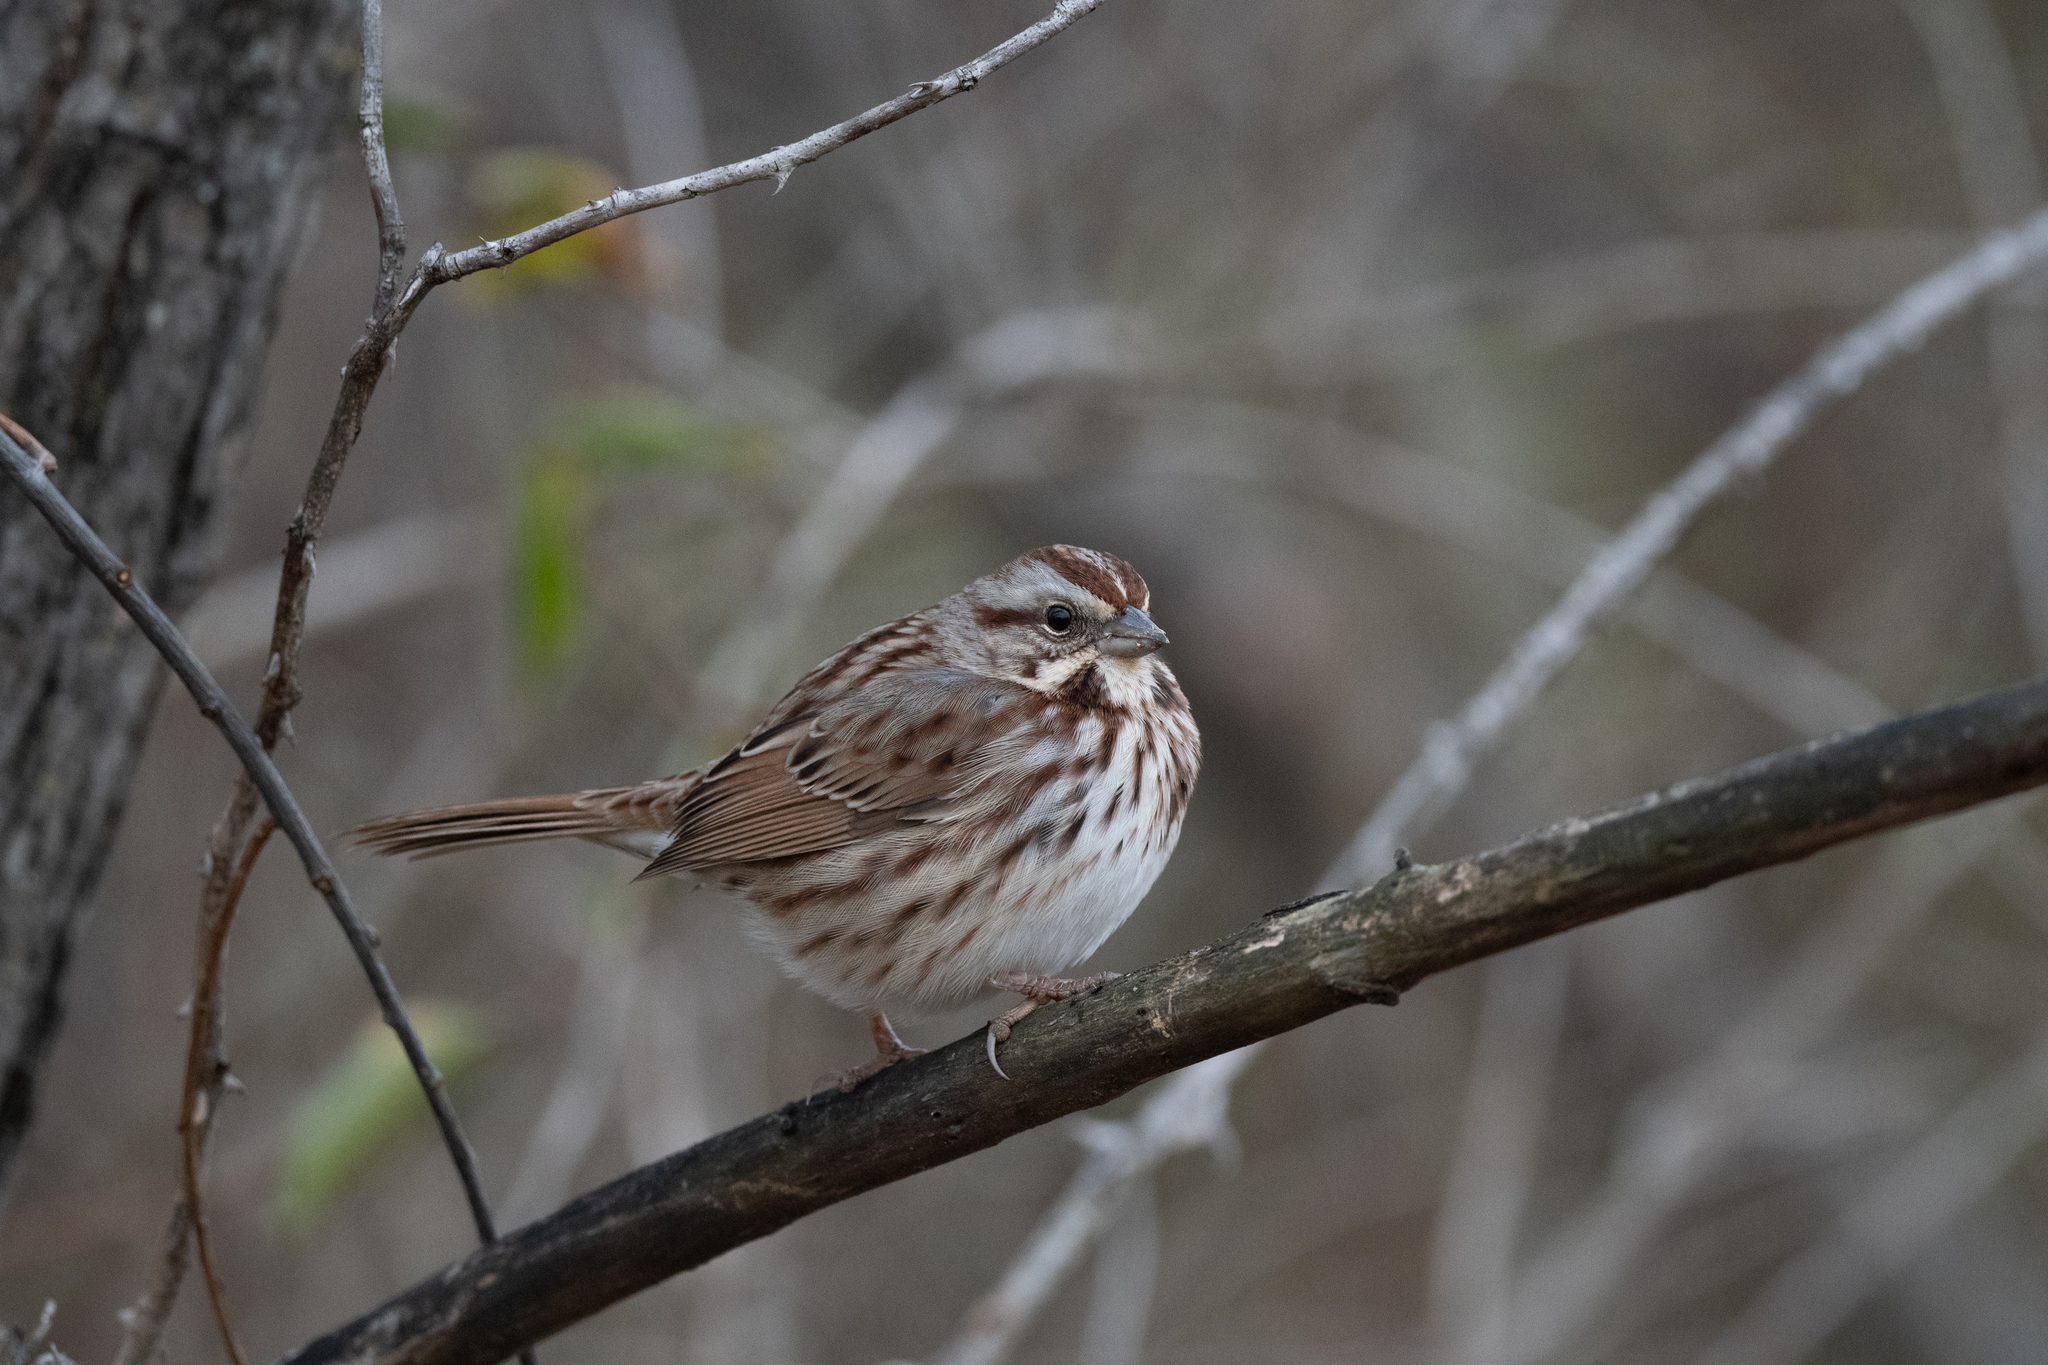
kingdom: Animalia
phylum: Chordata
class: Aves
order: Passeriformes
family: Passerellidae
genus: Melospiza
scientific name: Melospiza melodia
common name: Song sparrow
